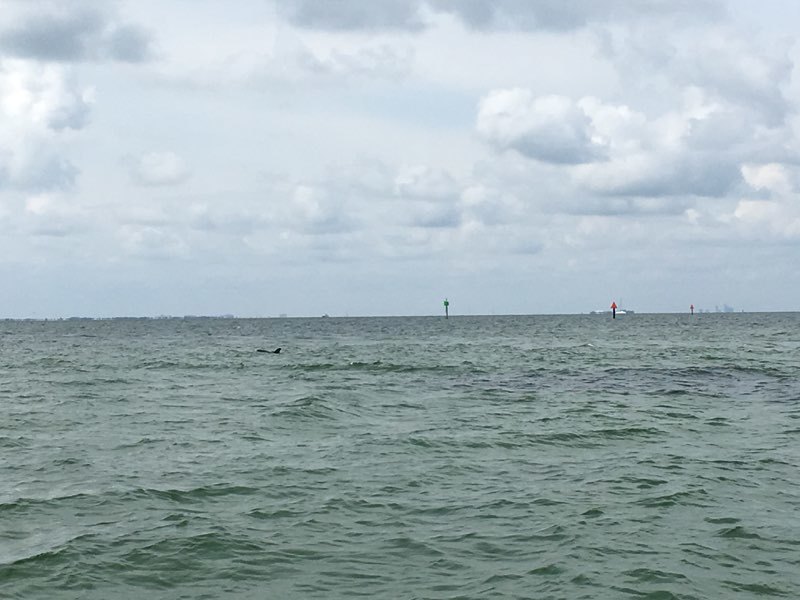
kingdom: Animalia
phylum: Chordata
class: Mammalia
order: Cetacea
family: Delphinidae
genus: Tursiops
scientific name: Tursiops truncatus
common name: Bottlenose dolphin
